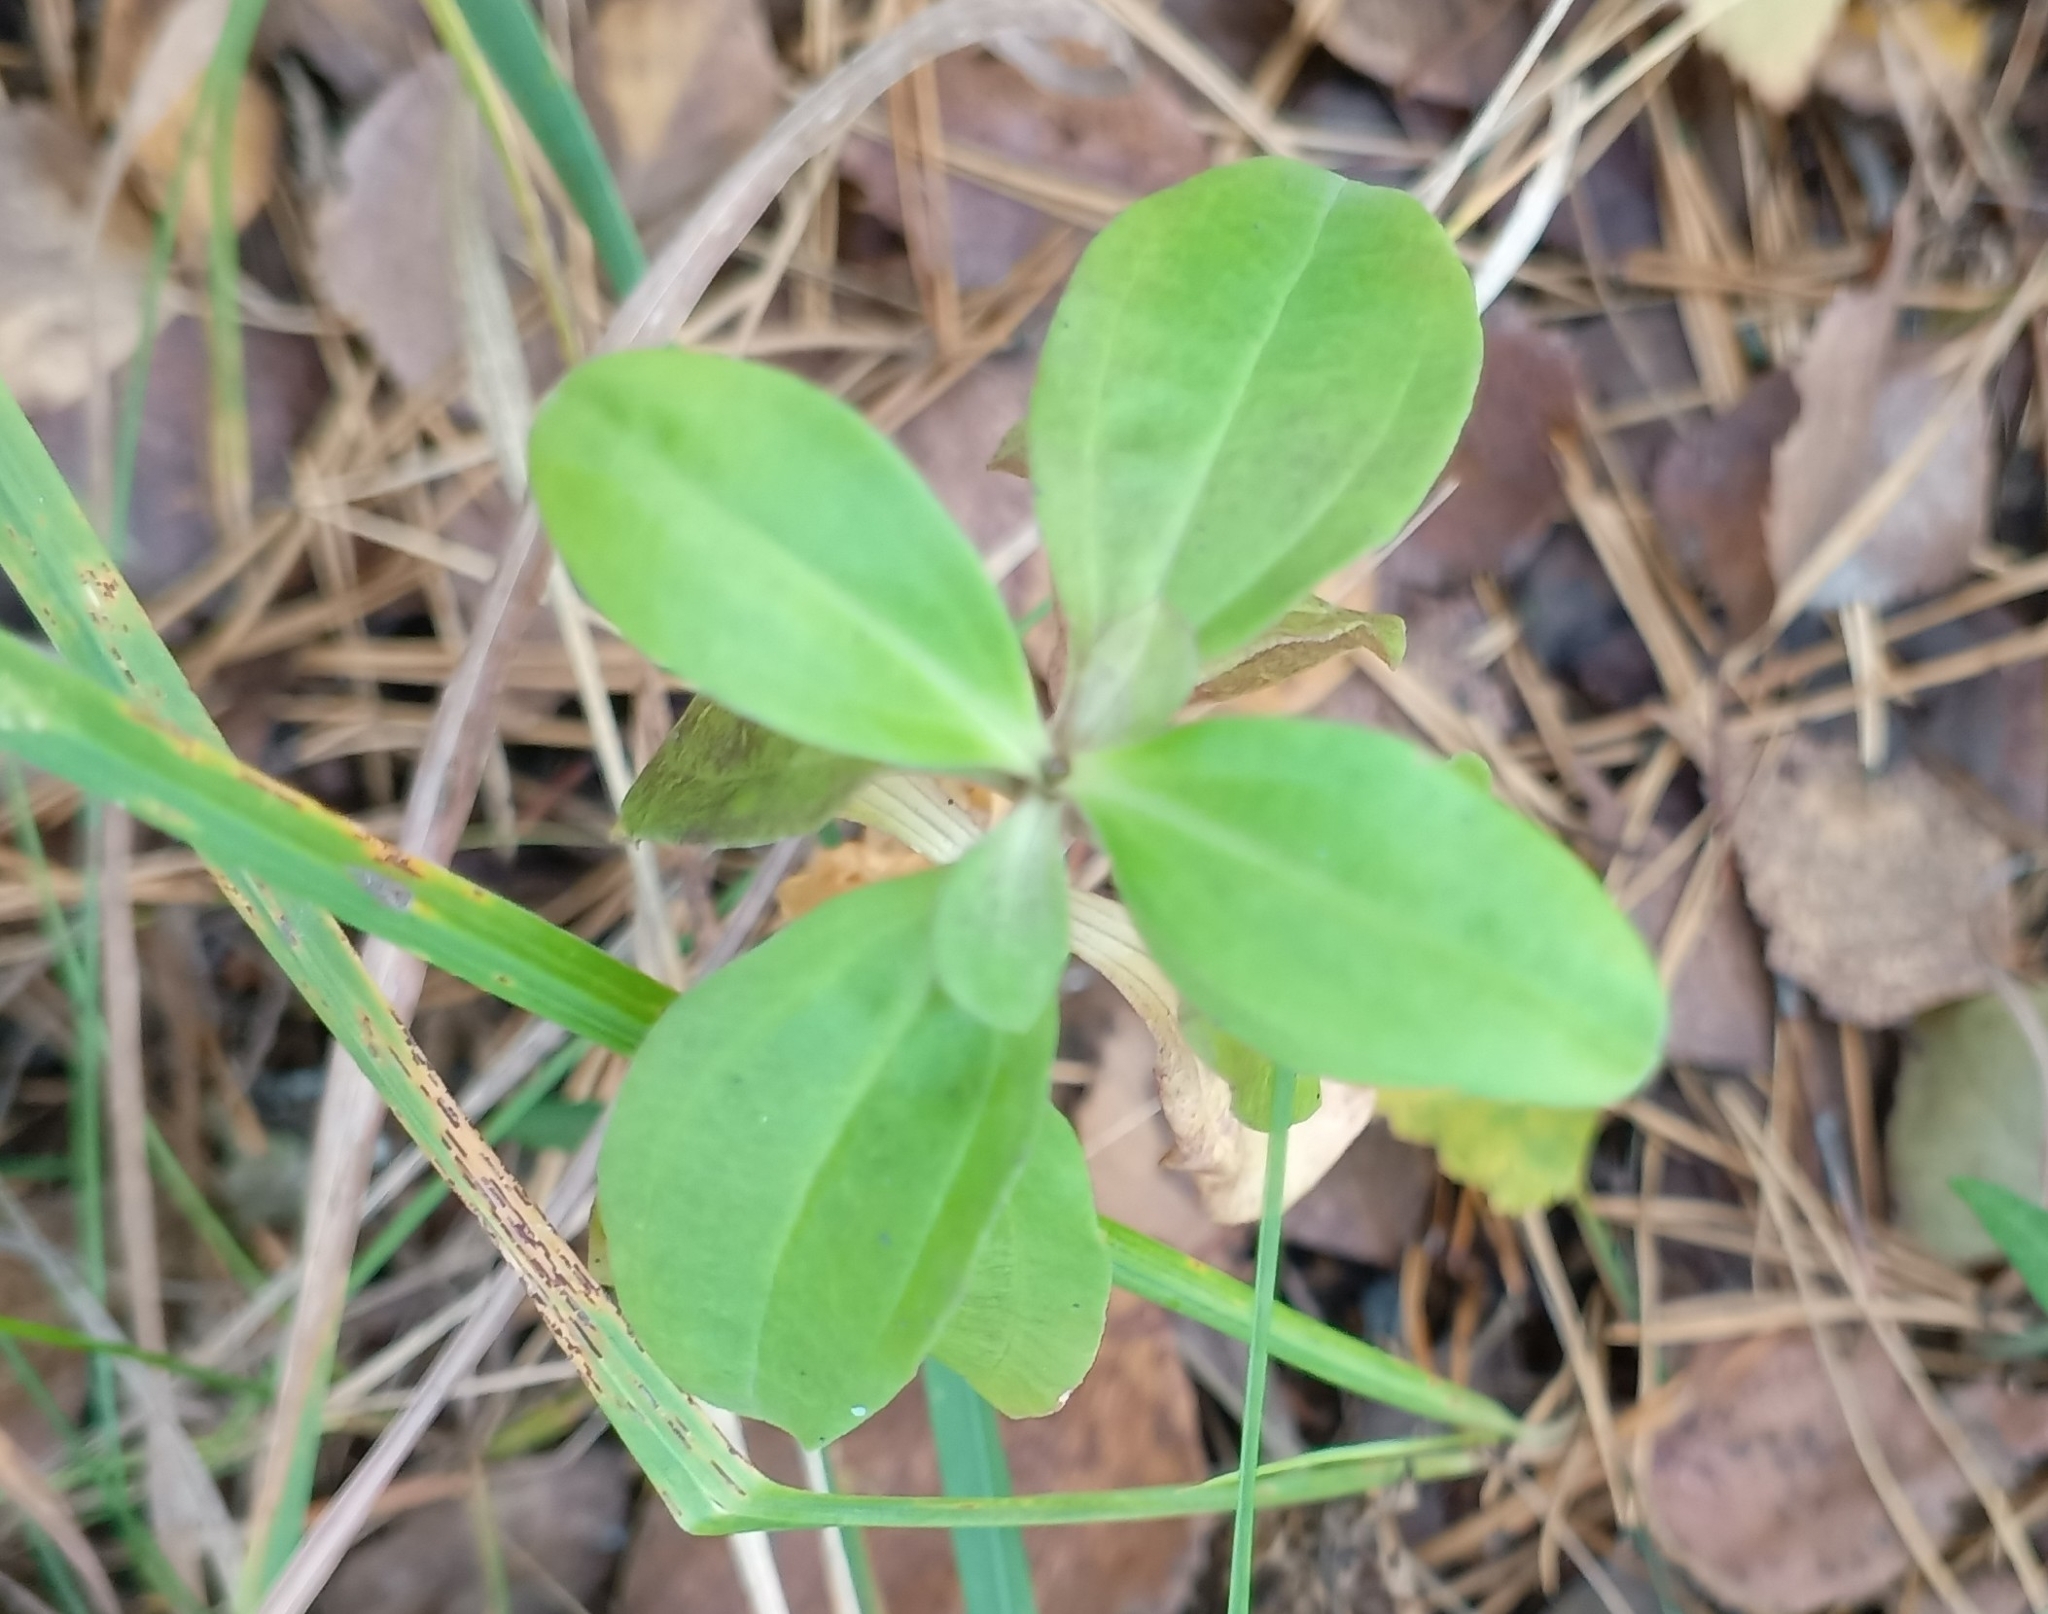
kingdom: Plantae
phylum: Tracheophyta
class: Magnoliopsida
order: Caryophyllales
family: Caryophyllaceae
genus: Saponaria
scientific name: Saponaria officinalis
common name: Soapwort
